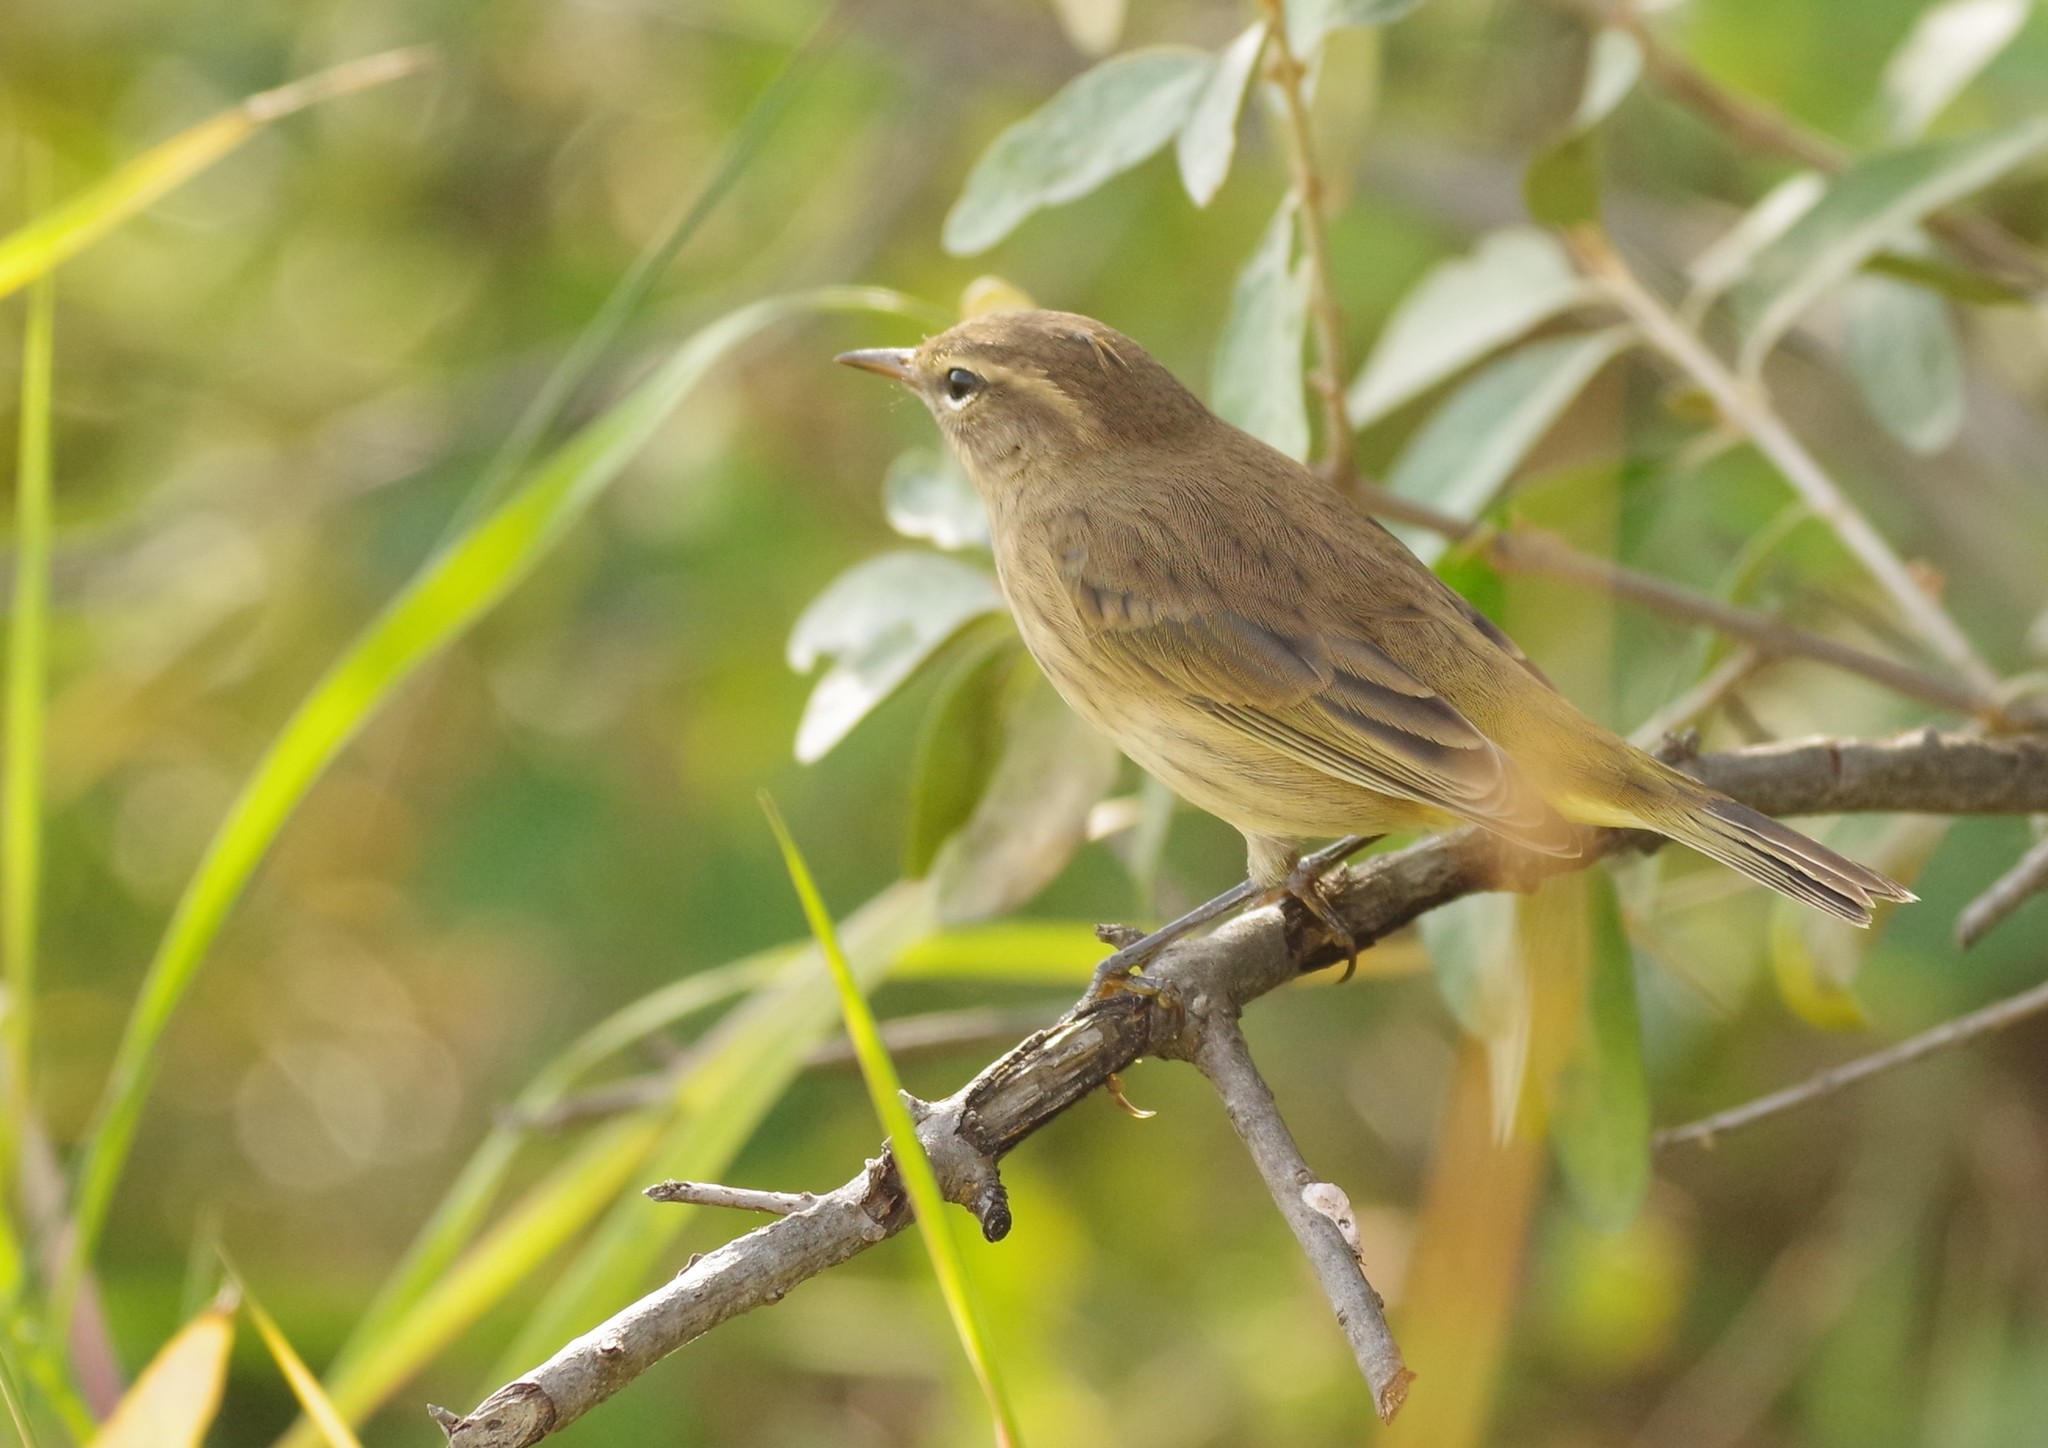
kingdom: Animalia
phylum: Chordata
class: Aves
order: Passeriformes
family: Parulidae
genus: Setophaga
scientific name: Setophaga palmarum
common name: Palm warbler
